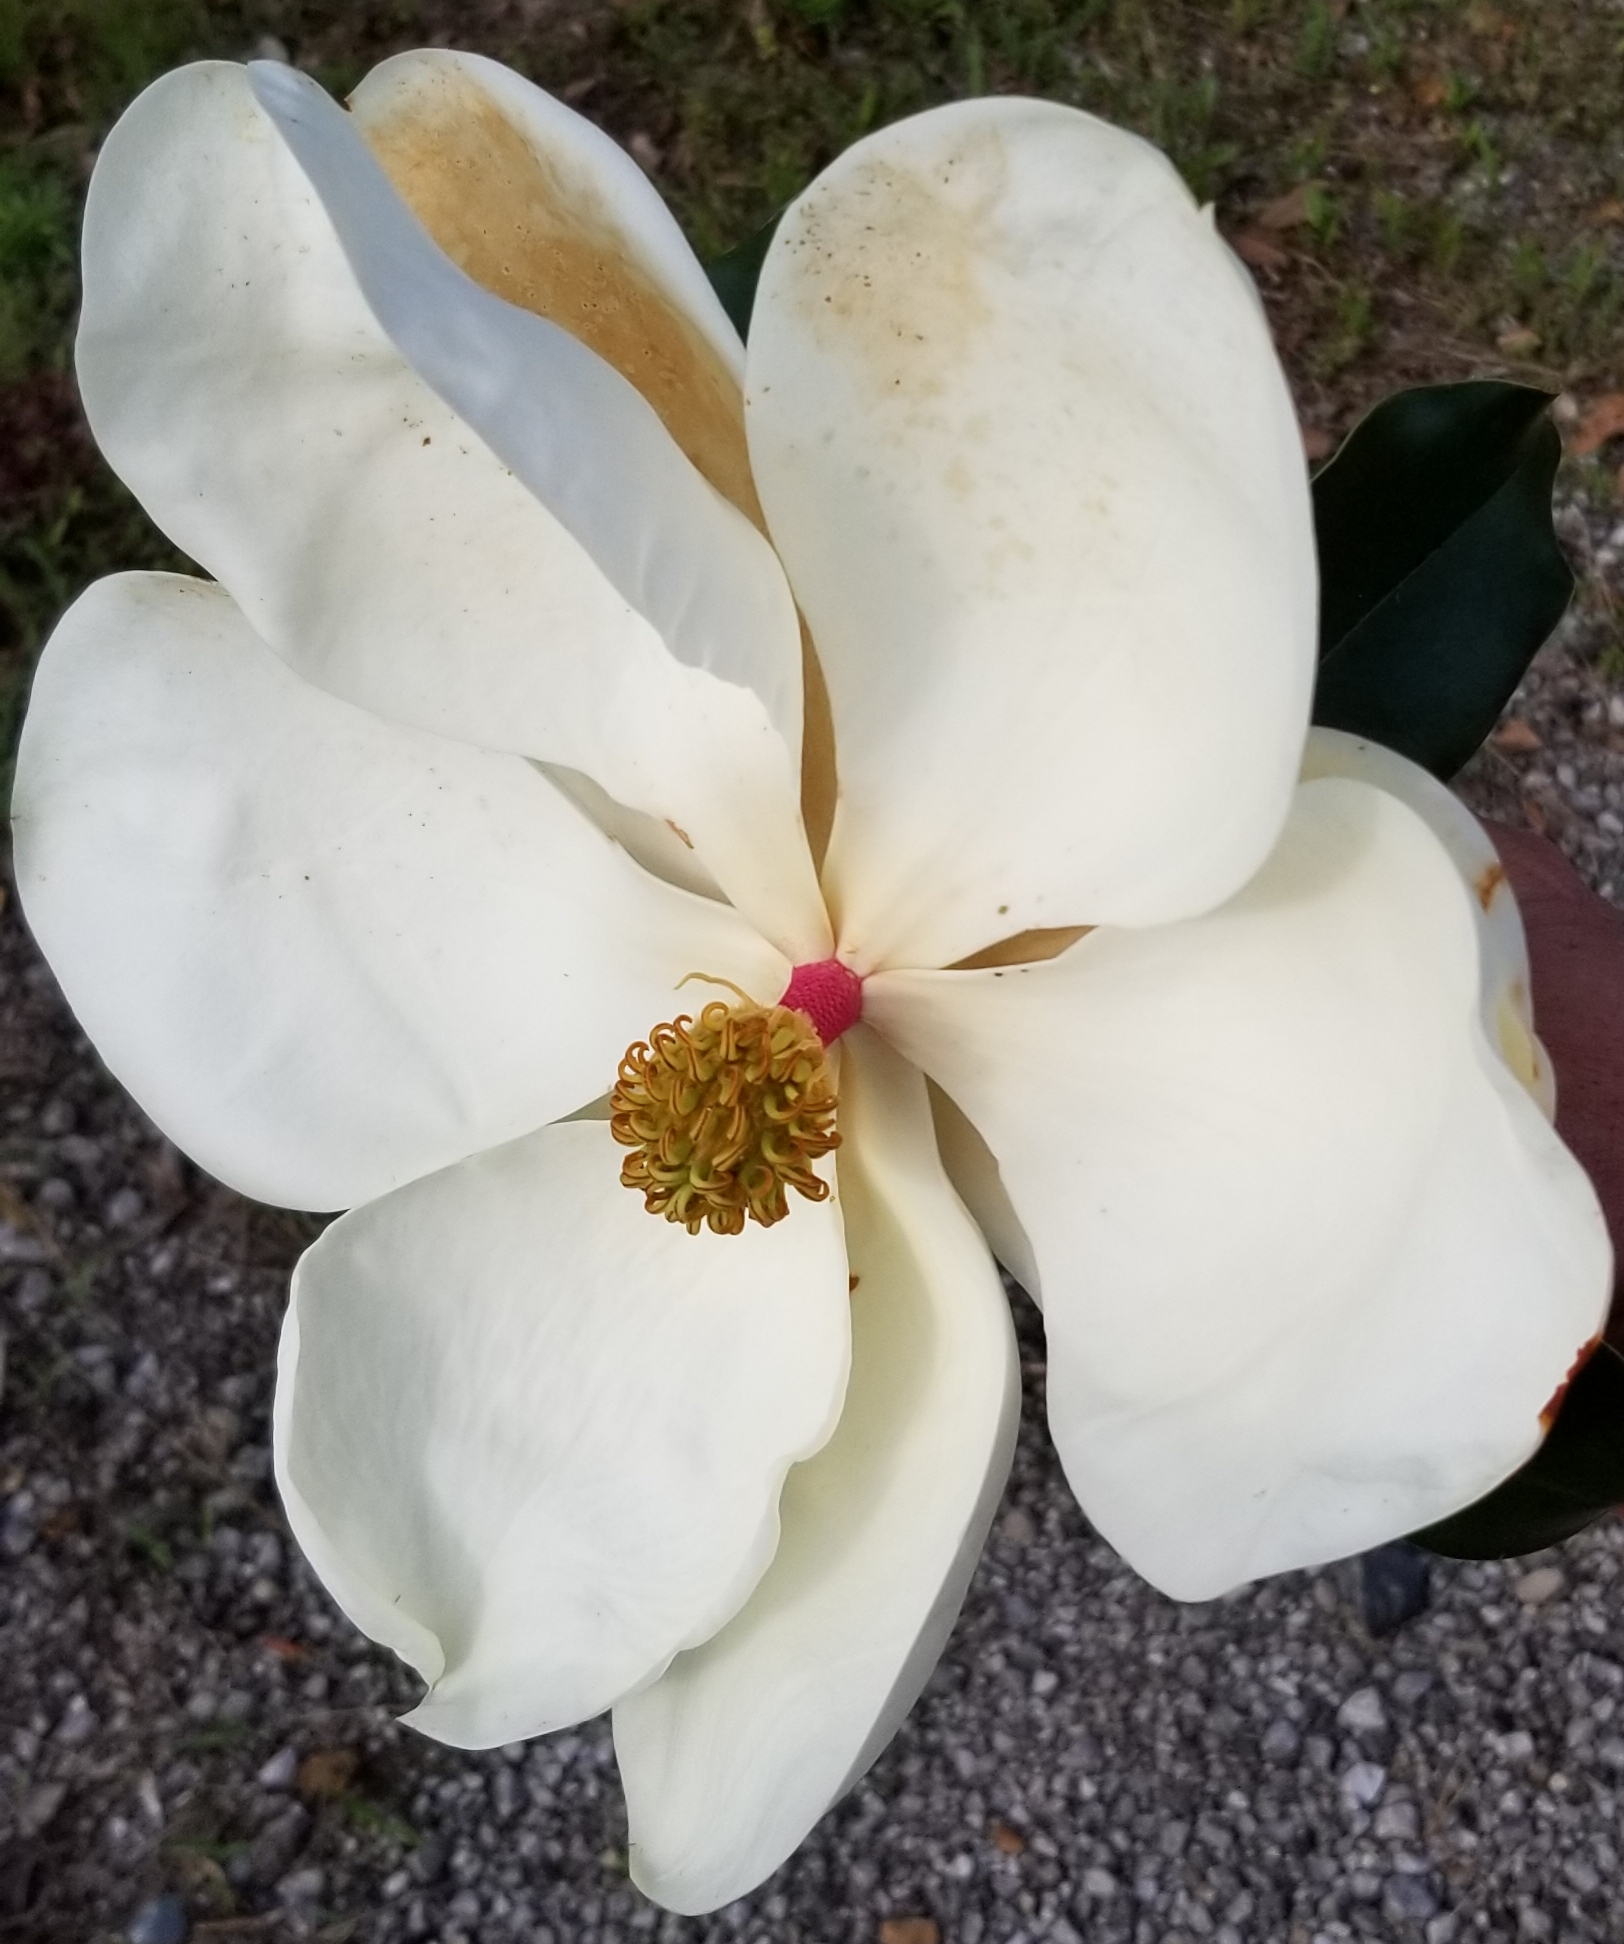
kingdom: Plantae
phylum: Tracheophyta
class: Magnoliopsida
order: Magnoliales
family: Magnoliaceae
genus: Magnolia
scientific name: Magnolia grandiflora
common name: Southern magnolia
